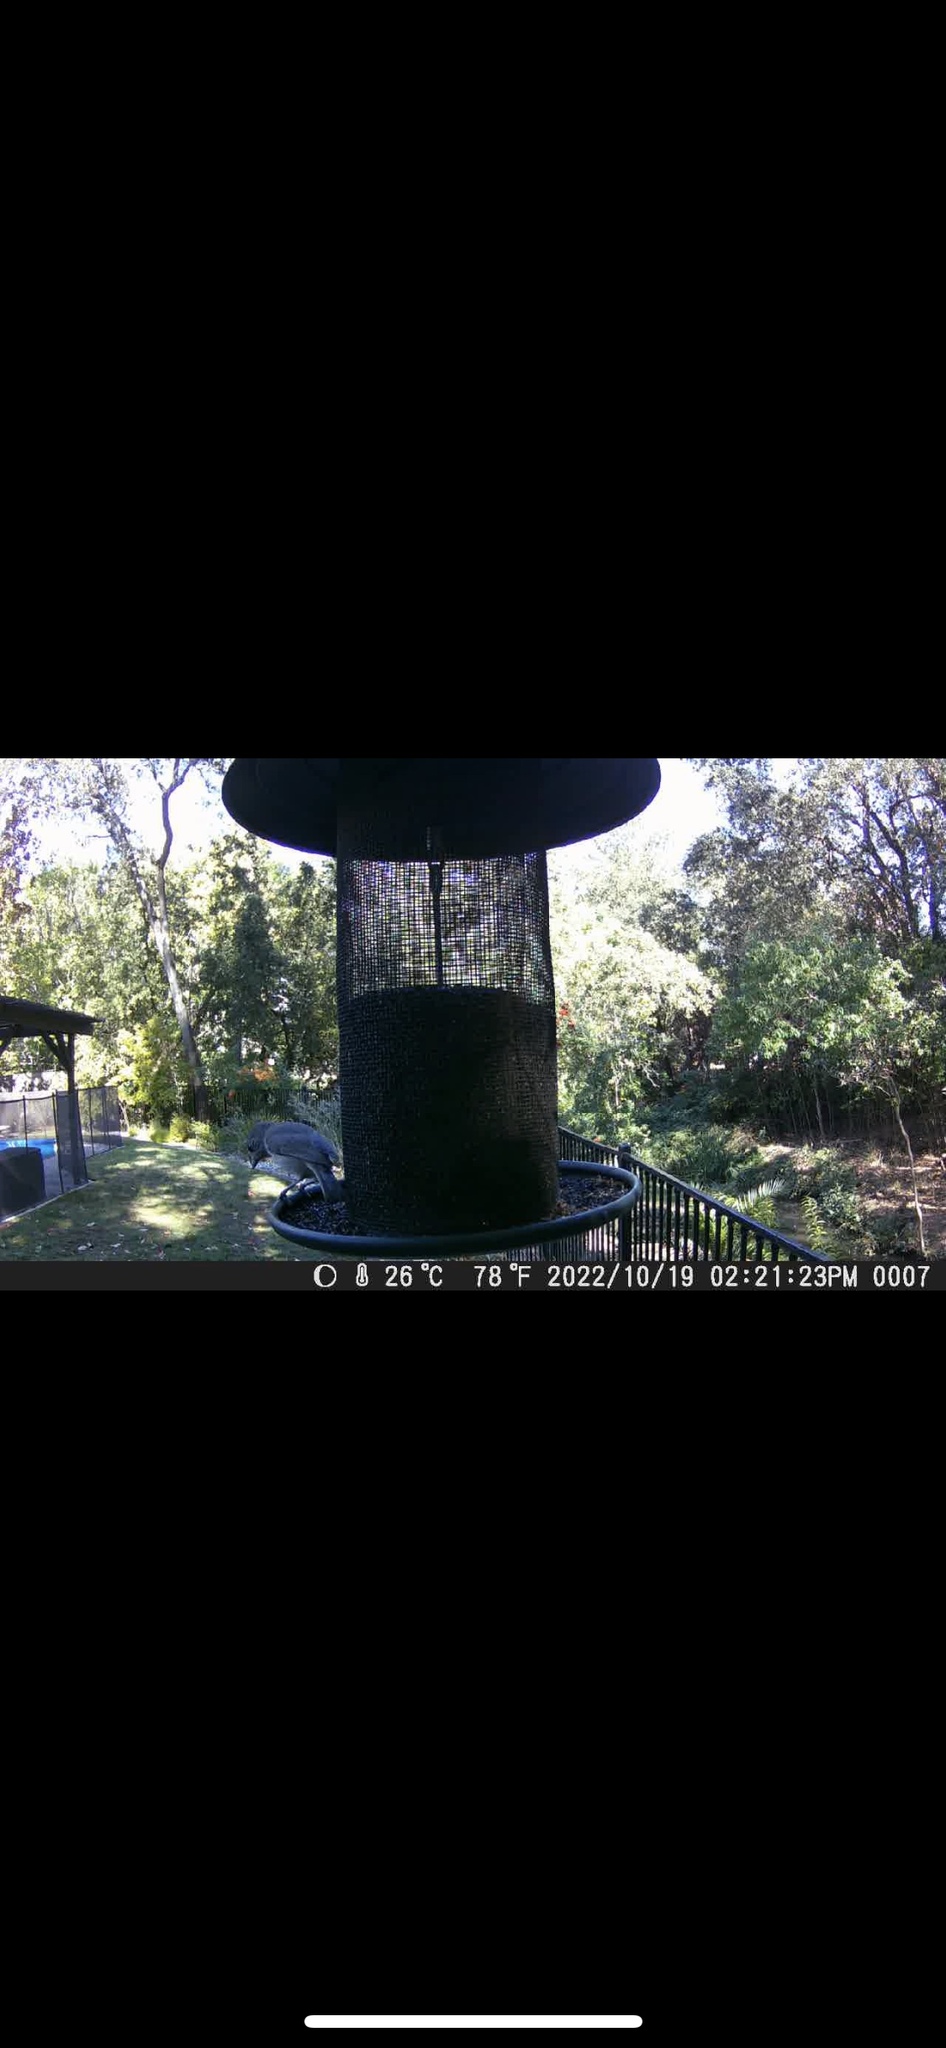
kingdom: Animalia
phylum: Chordata
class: Aves
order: Passeriformes
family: Paridae
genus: Baeolophus
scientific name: Baeolophus inornatus
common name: Oak titmouse
